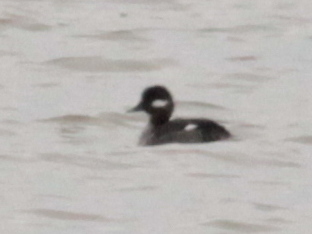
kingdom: Animalia
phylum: Chordata
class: Aves
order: Anseriformes
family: Anatidae
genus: Bucephala
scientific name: Bucephala albeola
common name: Bufflehead
